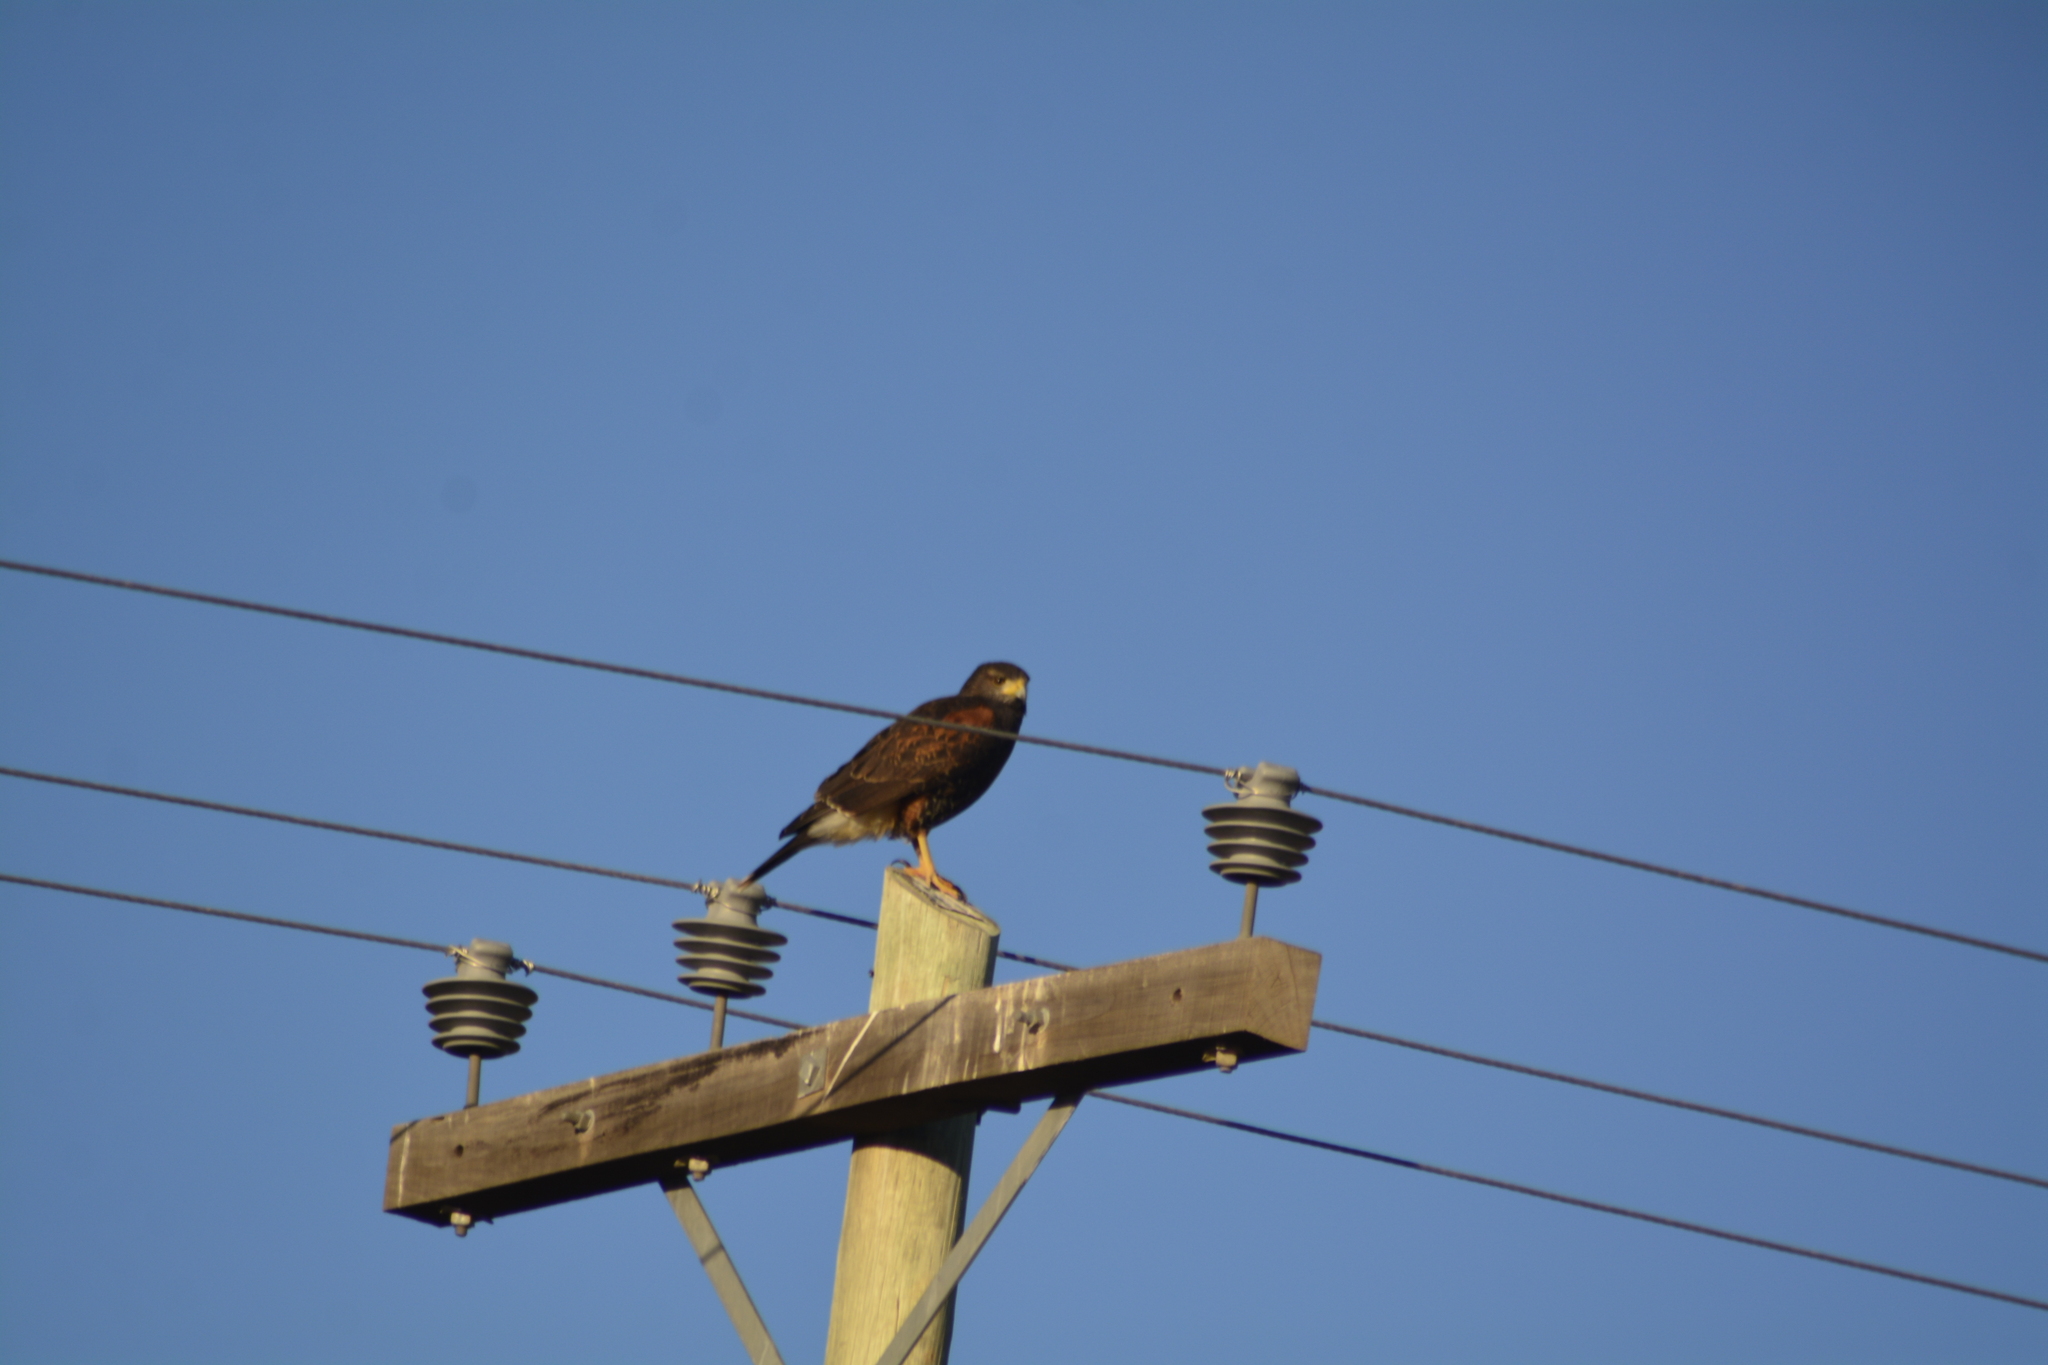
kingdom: Animalia
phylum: Chordata
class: Aves
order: Accipitriformes
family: Accipitridae
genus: Parabuteo
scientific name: Parabuteo unicinctus
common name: Harris's hawk
